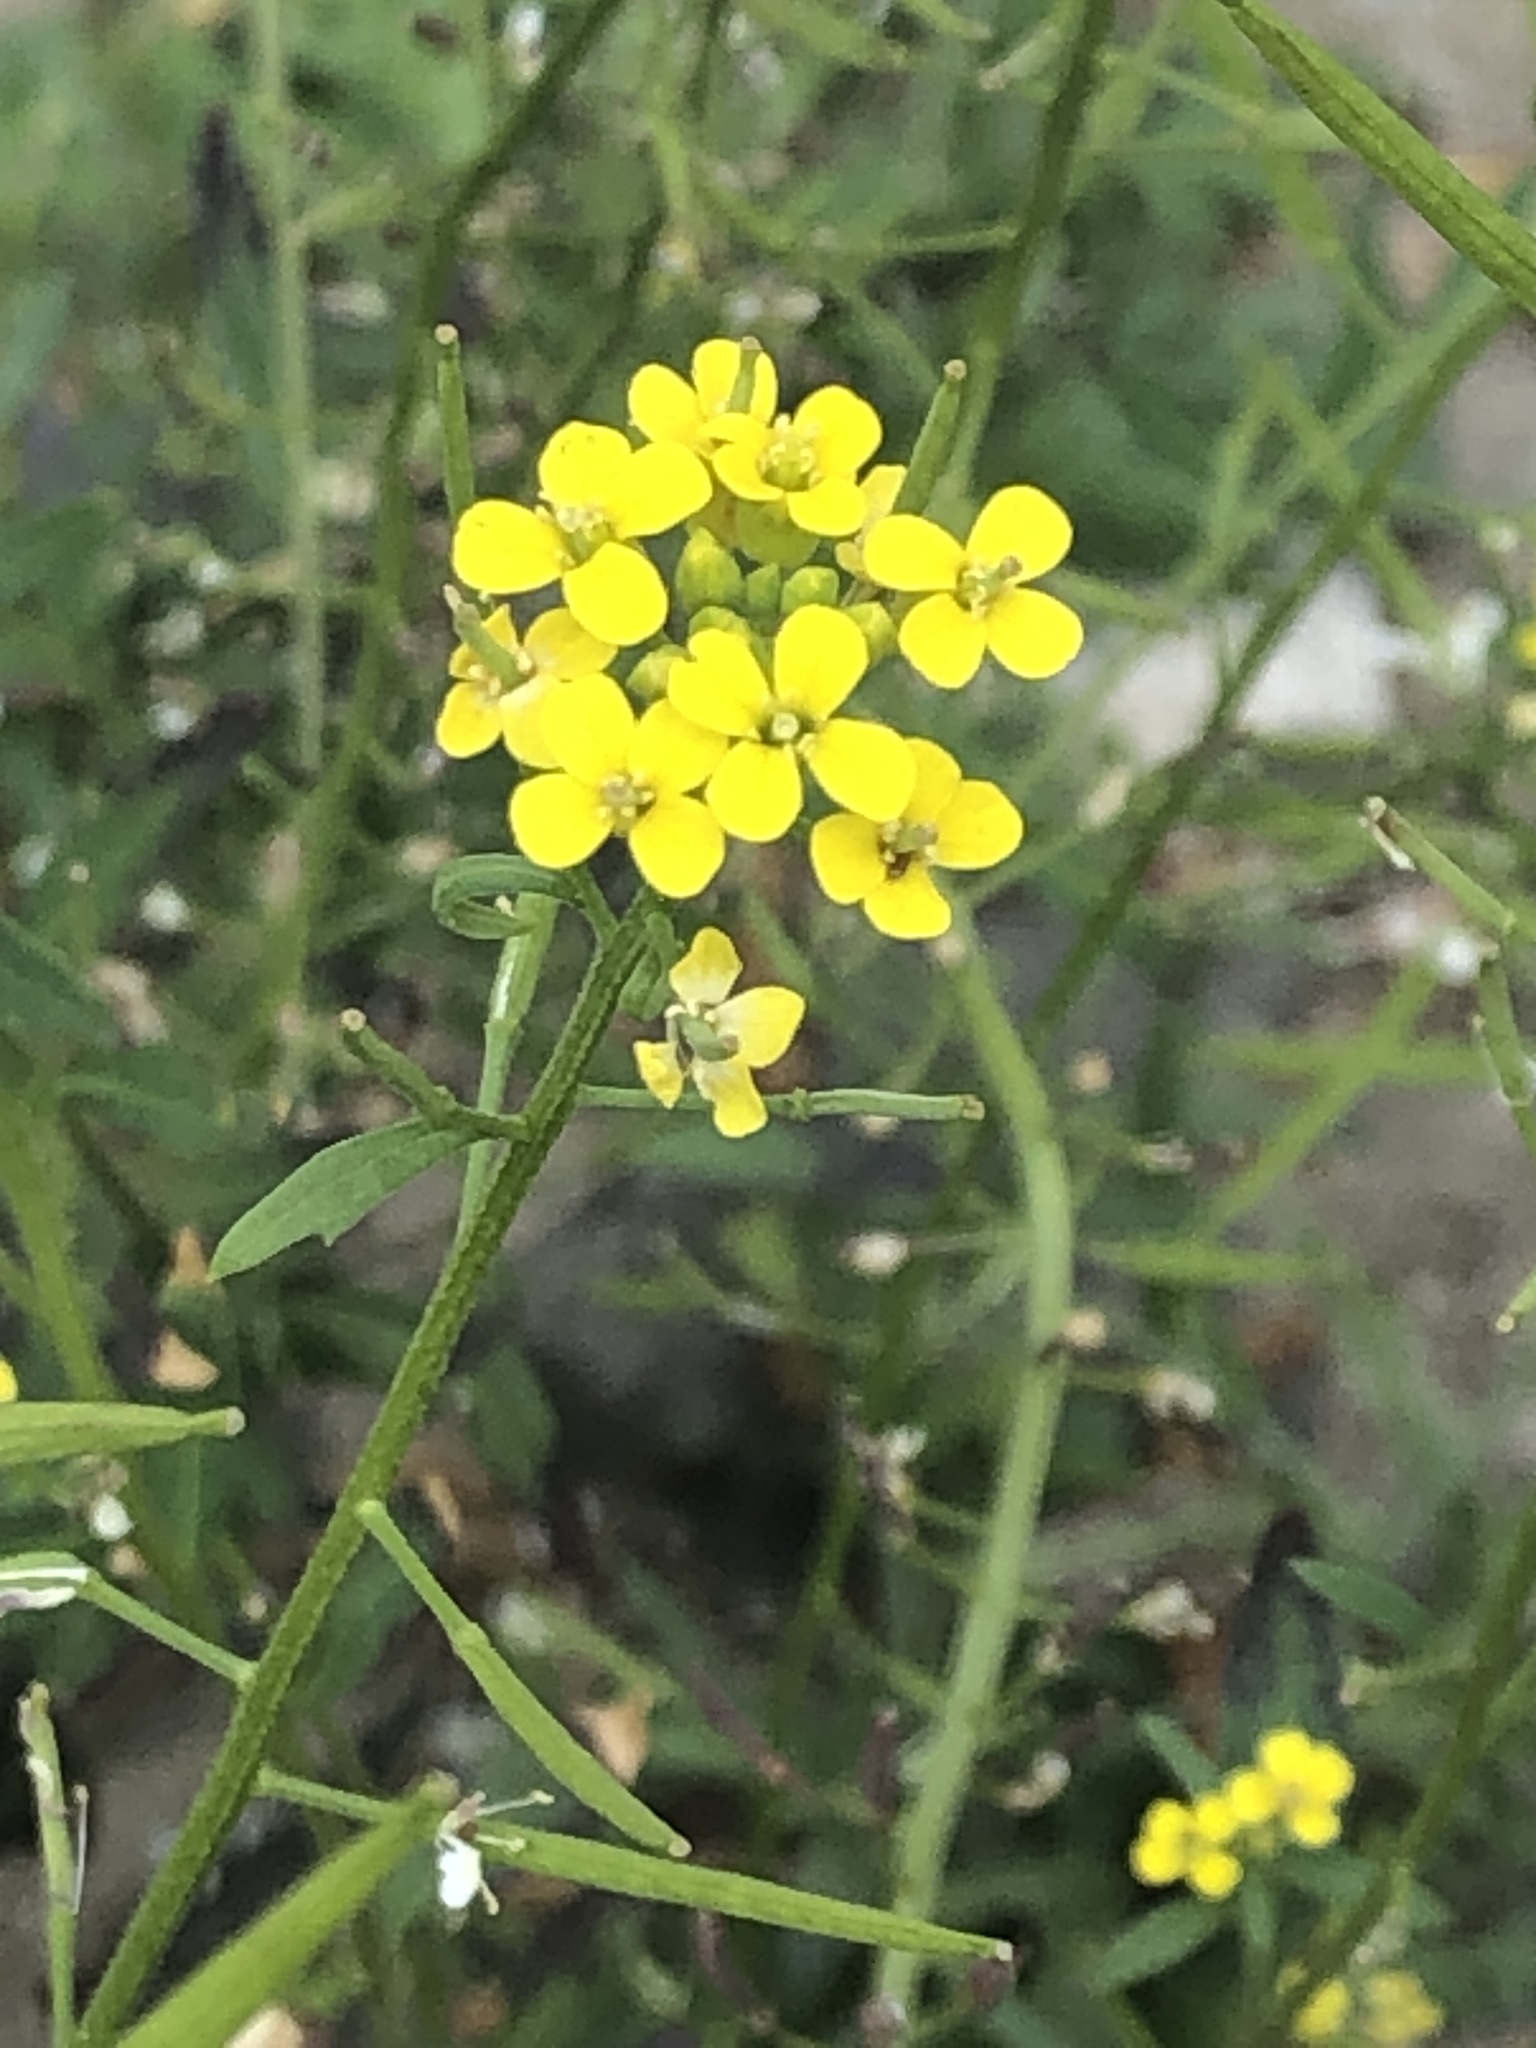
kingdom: Plantae
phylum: Tracheophyta
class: Magnoliopsida
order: Brassicales
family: Brassicaceae
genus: Erysimum
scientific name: Erysimum cheiranthoides
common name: Treacle mustard
